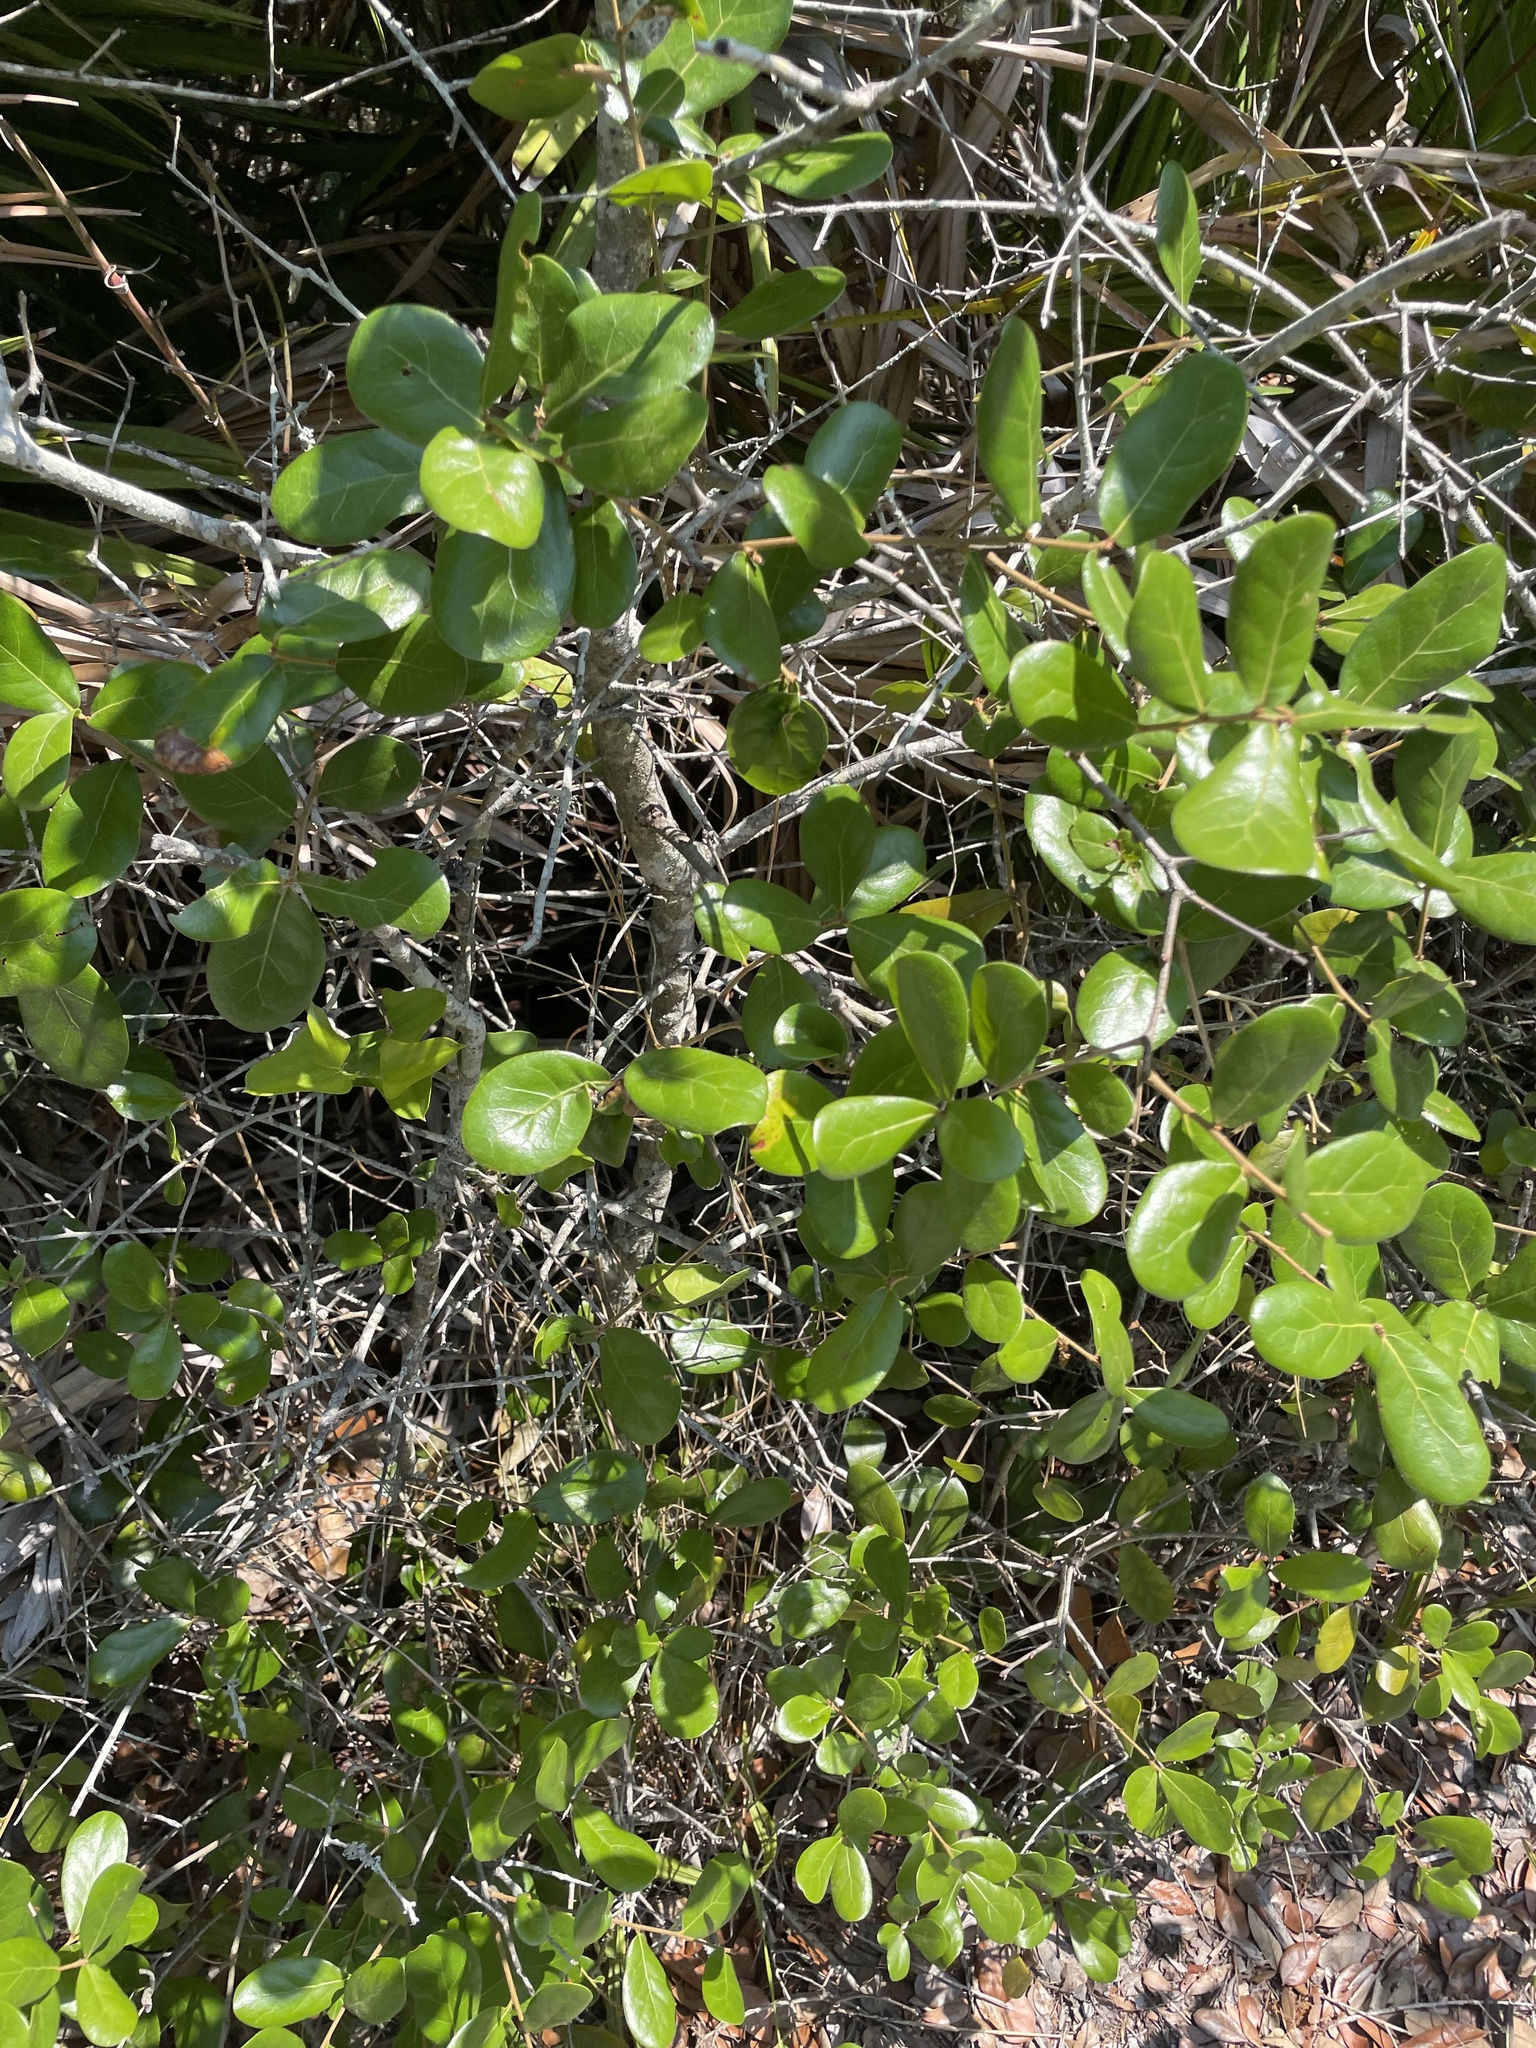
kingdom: Plantae
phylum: Tracheophyta
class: Magnoliopsida
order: Fagales
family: Fagaceae
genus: Quercus
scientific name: Quercus myrtifolia
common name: Myrtle oak
